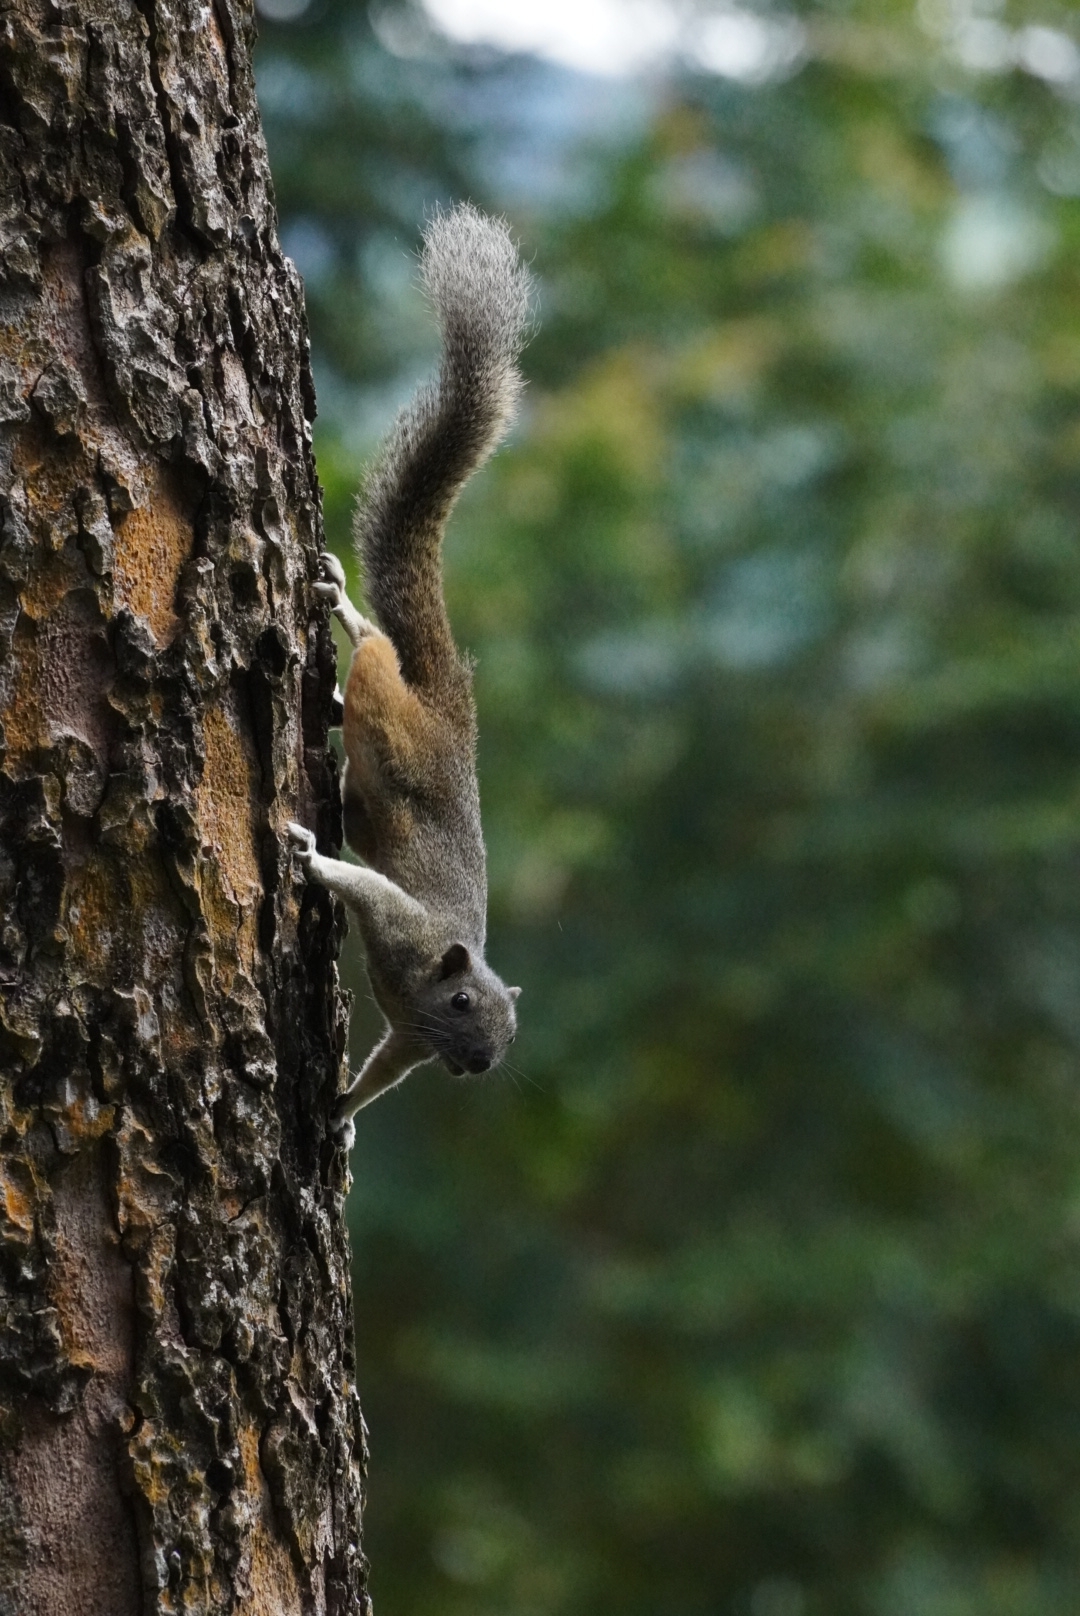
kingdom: Animalia
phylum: Chordata
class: Mammalia
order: Rodentia
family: Sciuridae
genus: Callosciurus
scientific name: Callosciurus erythraeus
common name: Pallas's squirrel
